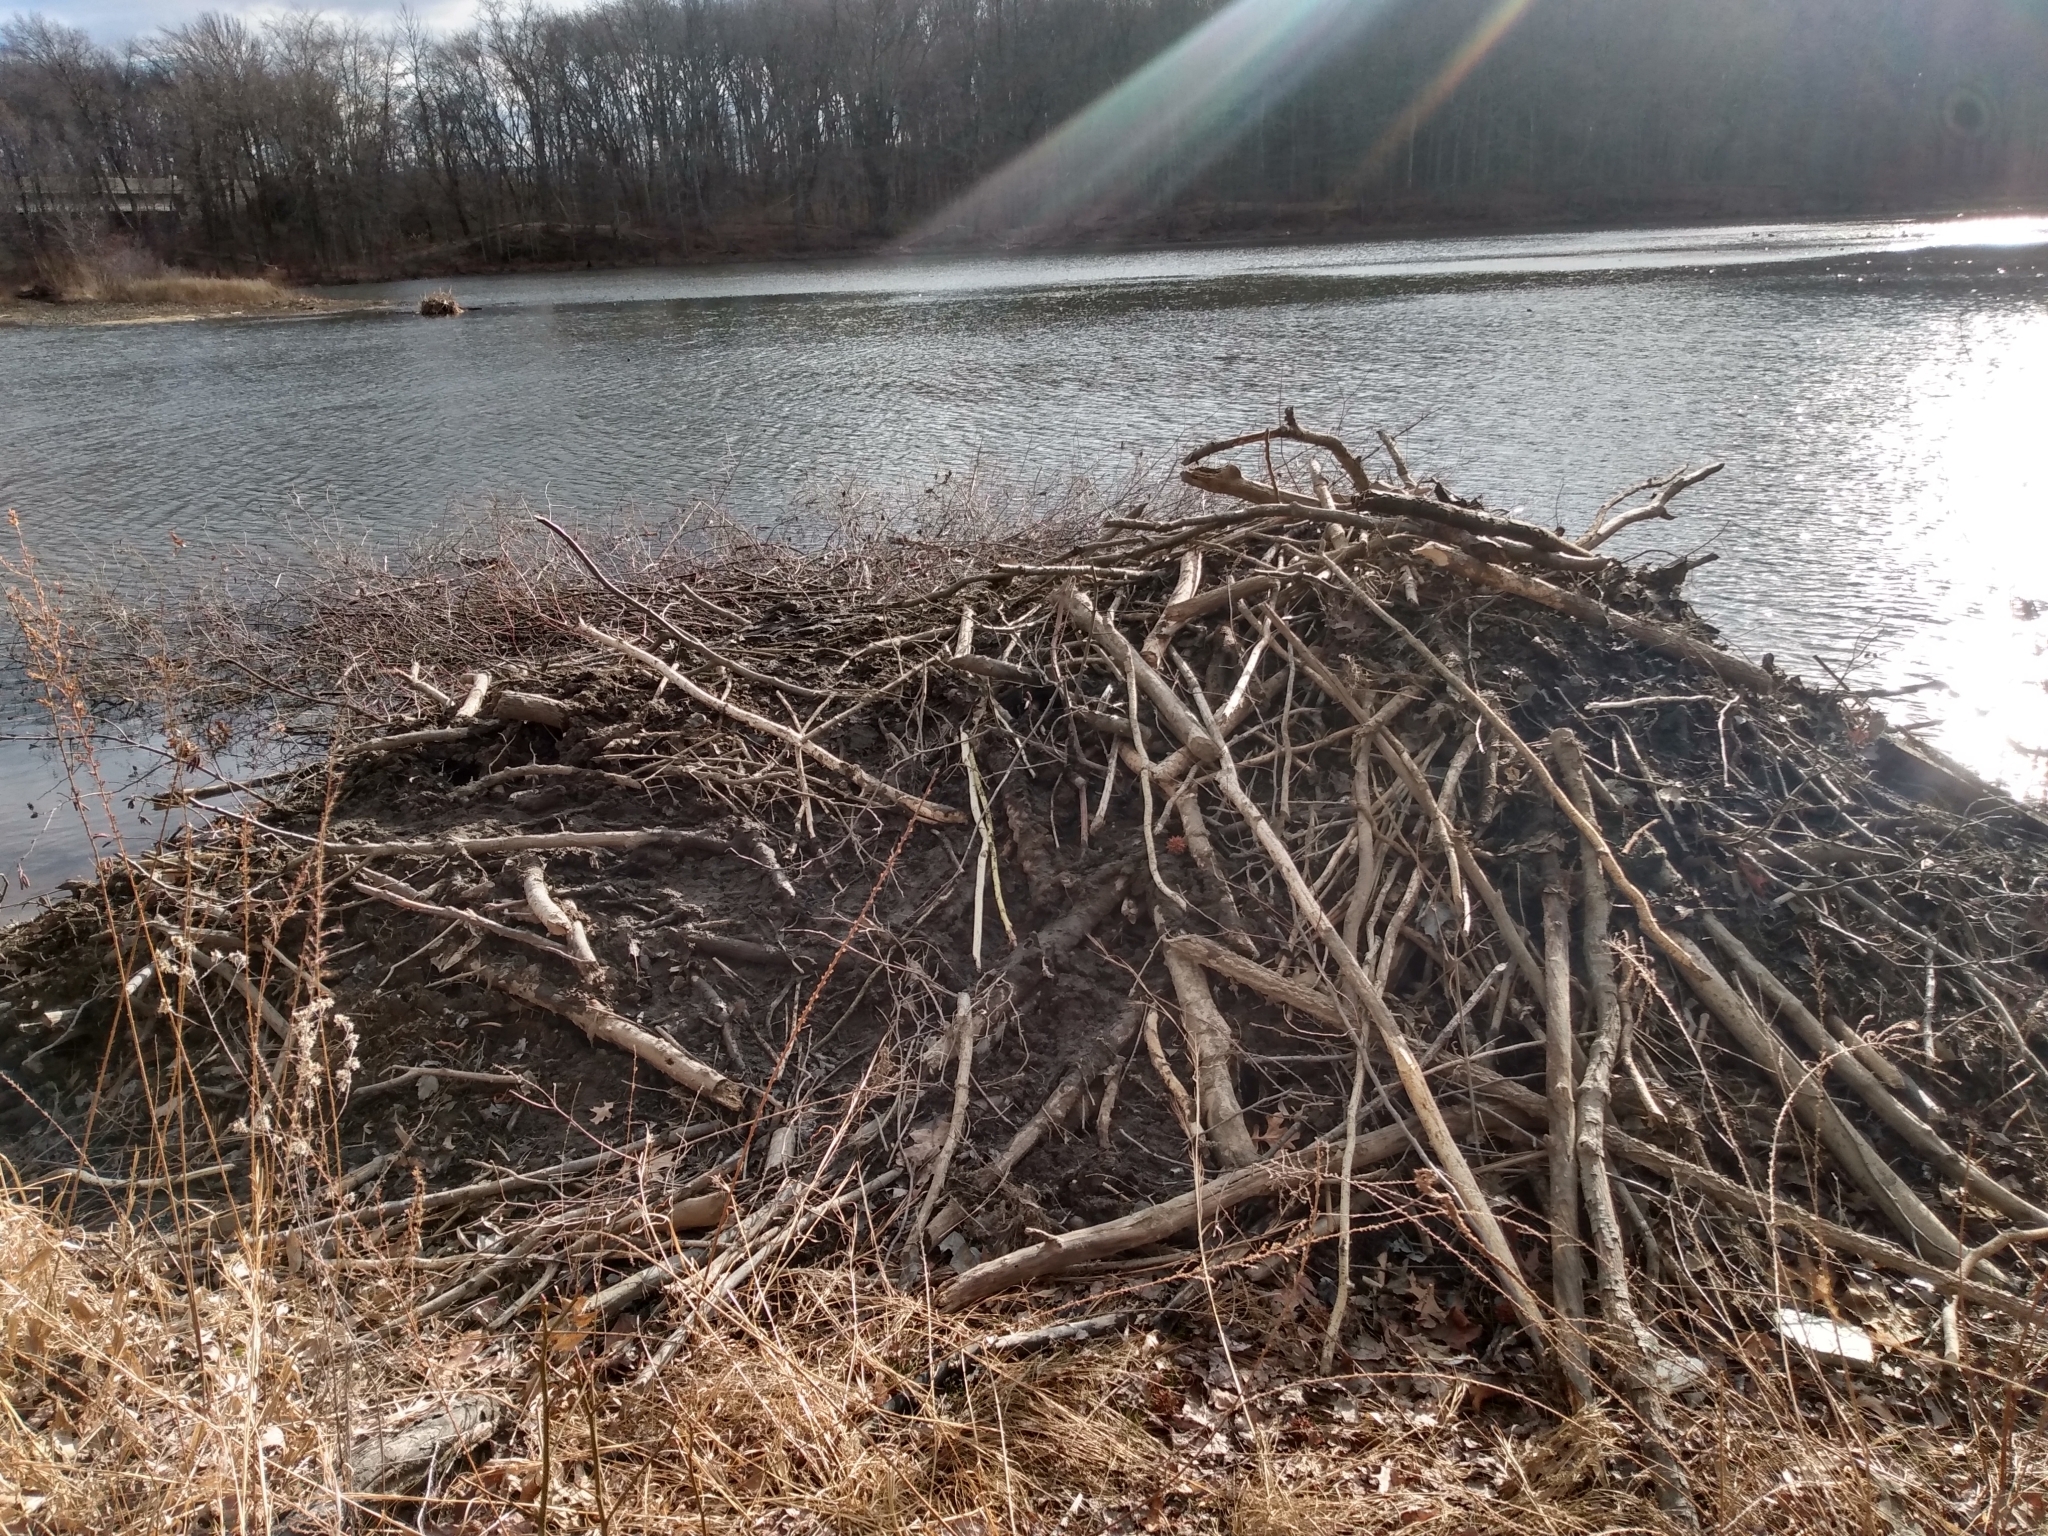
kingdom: Animalia
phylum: Chordata
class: Mammalia
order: Rodentia
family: Castoridae
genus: Castor
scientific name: Castor canadensis
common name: American beaver
